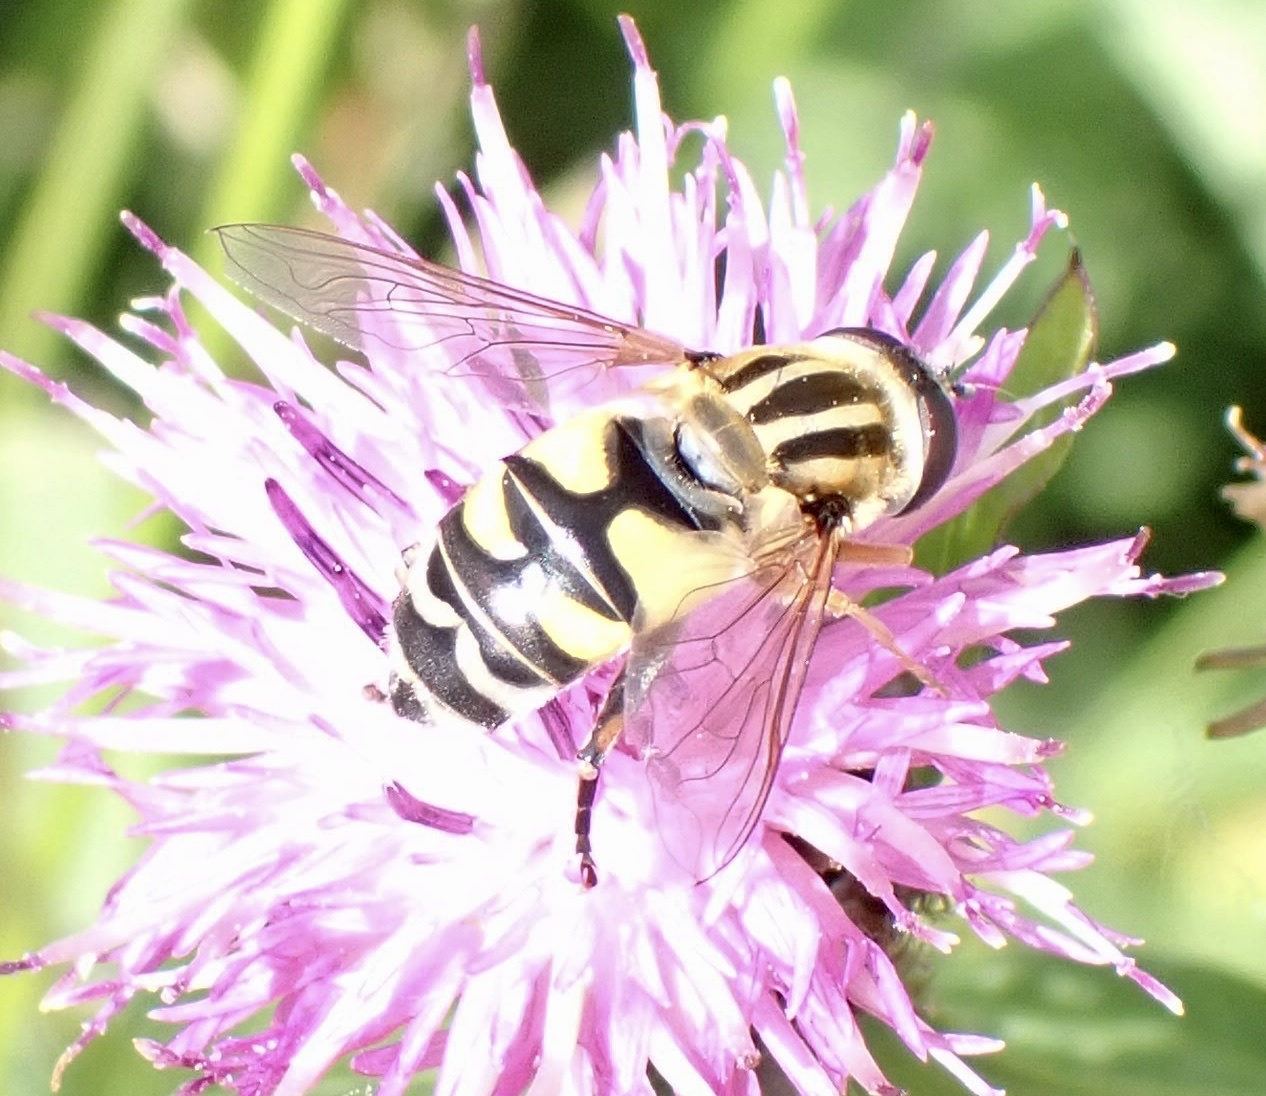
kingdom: Animalia
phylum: Arthropoda
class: Insecta
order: Diptera
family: Syrphidae
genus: Helophilus
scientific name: Helophilus trivittatus
